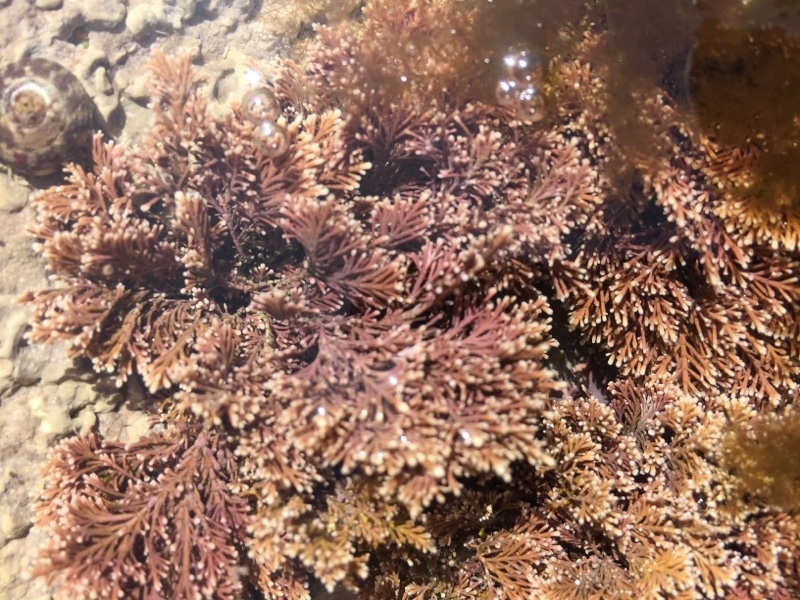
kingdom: Plantae
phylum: Rhodophyta
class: Florideophyceae
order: Corallinales
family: Corallinaceae
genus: Corallina
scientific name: Corallina officinalis
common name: Coral weed
